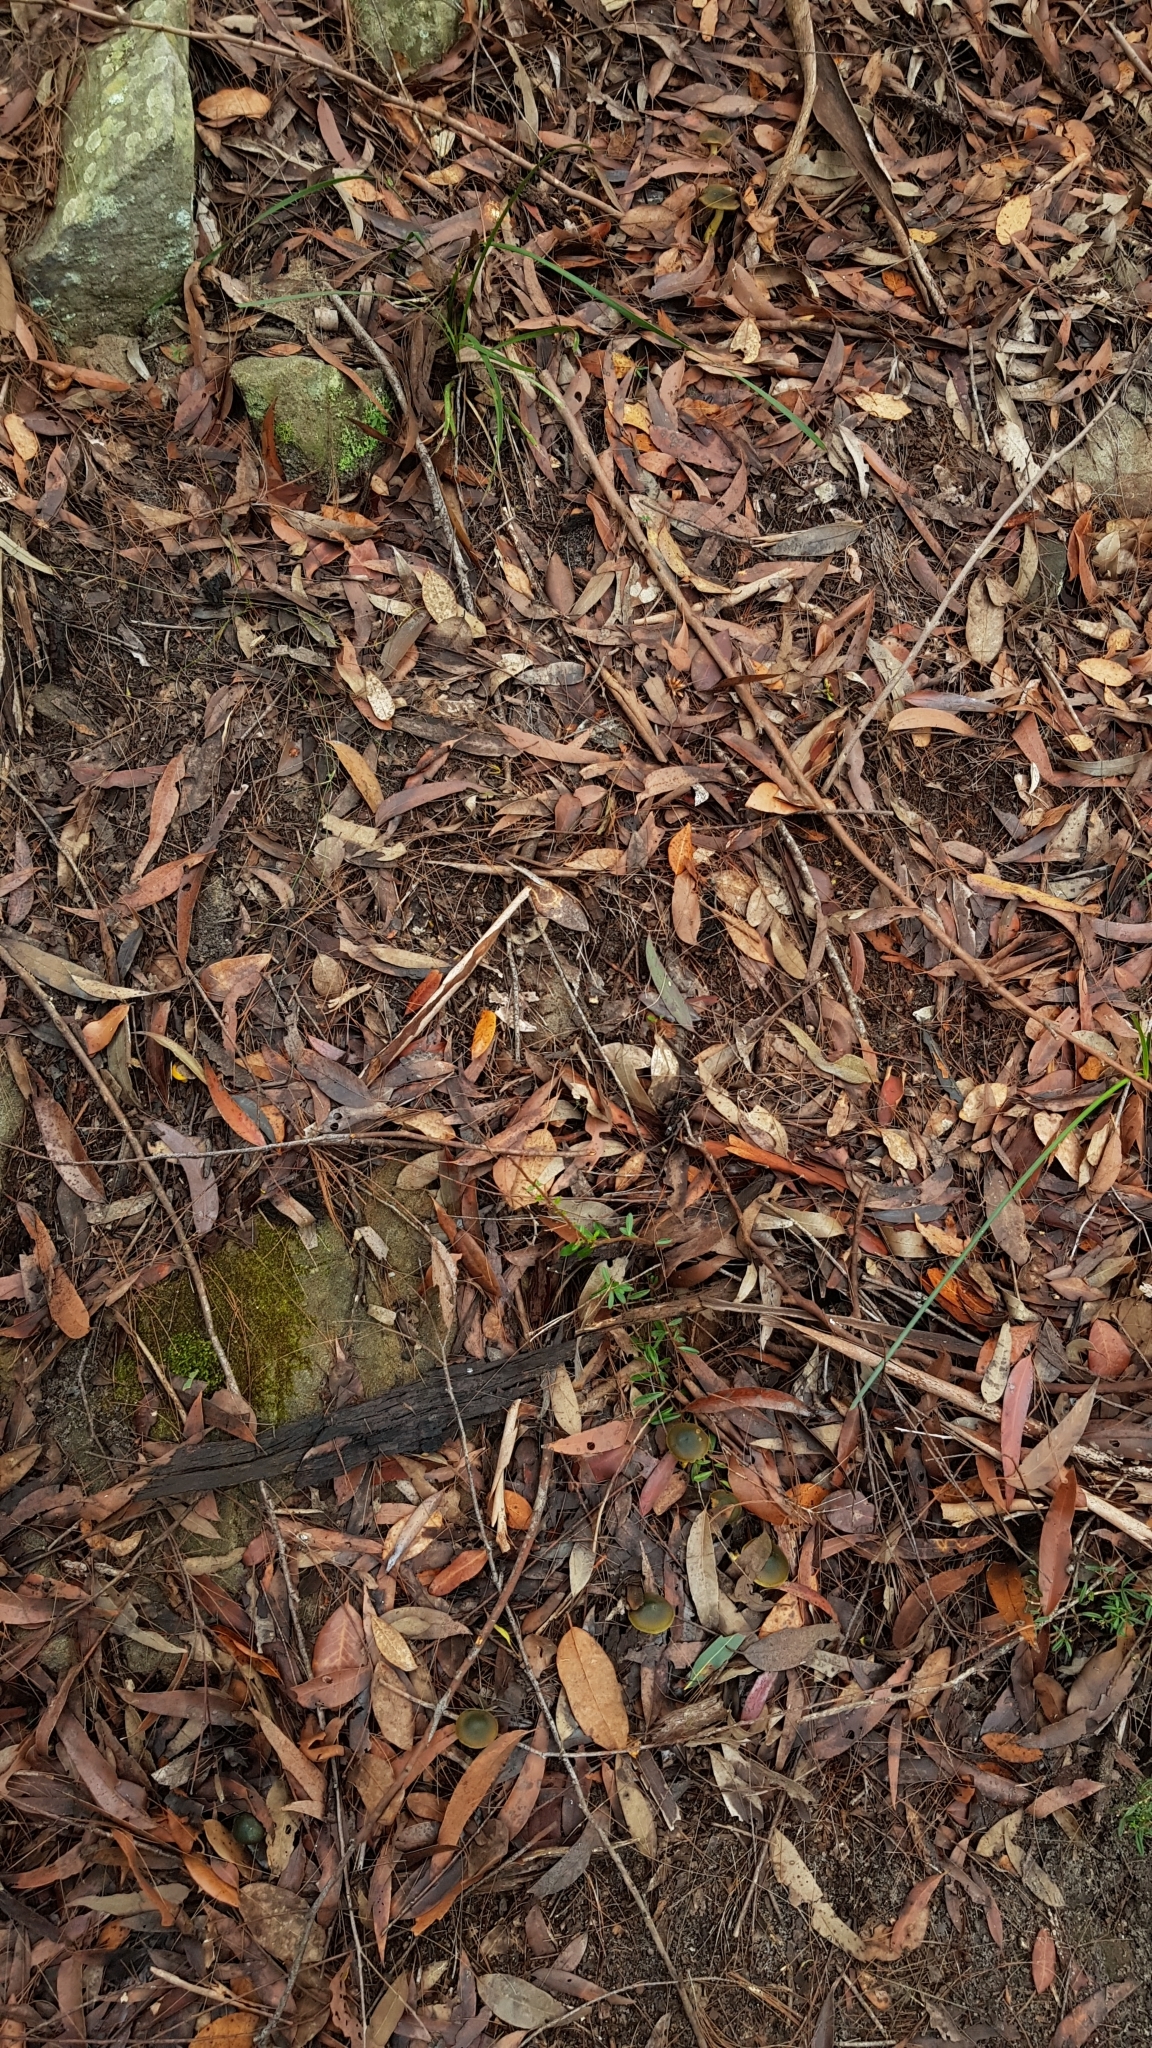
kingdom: Fungi
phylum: Basidiomycota
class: Agaricomycetes
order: Agaricales
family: Cortinariaceae
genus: Cortinarius
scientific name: Cortinarius austrovenetus
